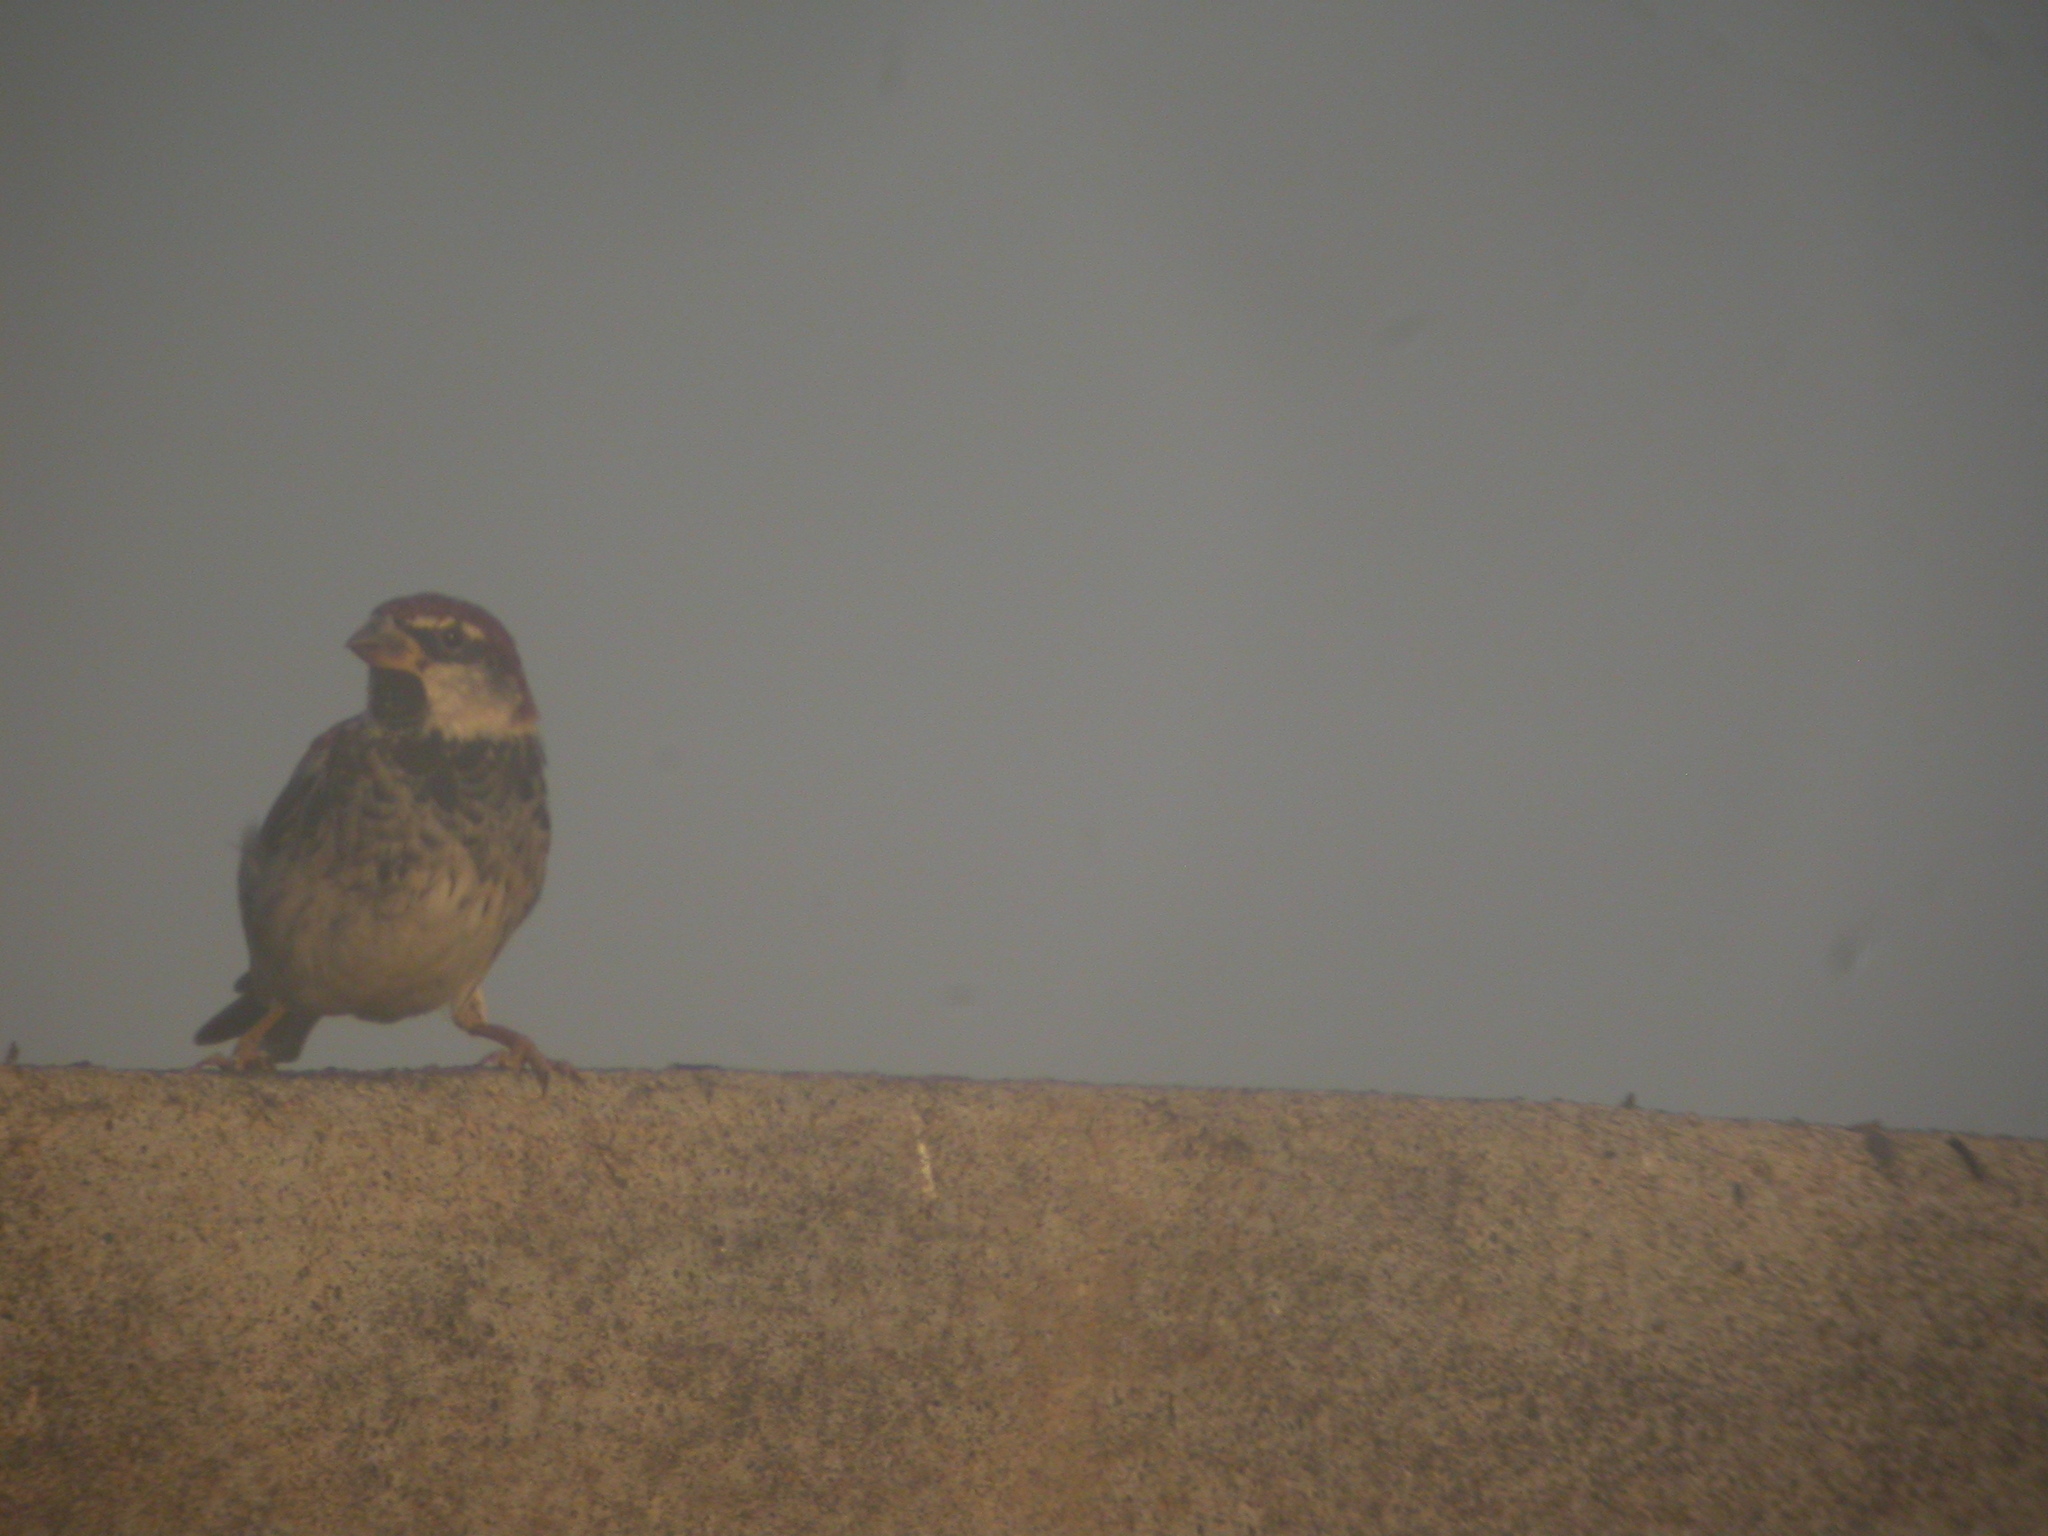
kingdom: Animalia
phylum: Chordata
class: Aves
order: Passeriformes
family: Passeridae
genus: Passer
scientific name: Passer hispaniolensis
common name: Spanish sparrow
